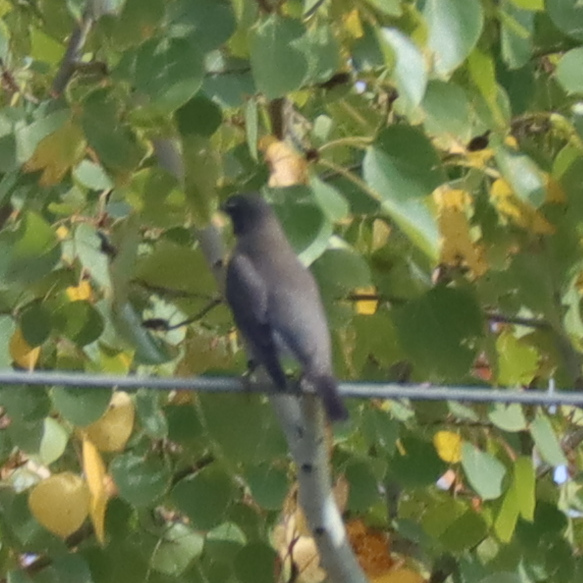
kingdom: Animalia
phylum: Chordata
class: Aves
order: Passeriformes
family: Turdidae
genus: Turdus
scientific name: Turdus migratorius
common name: American robin
